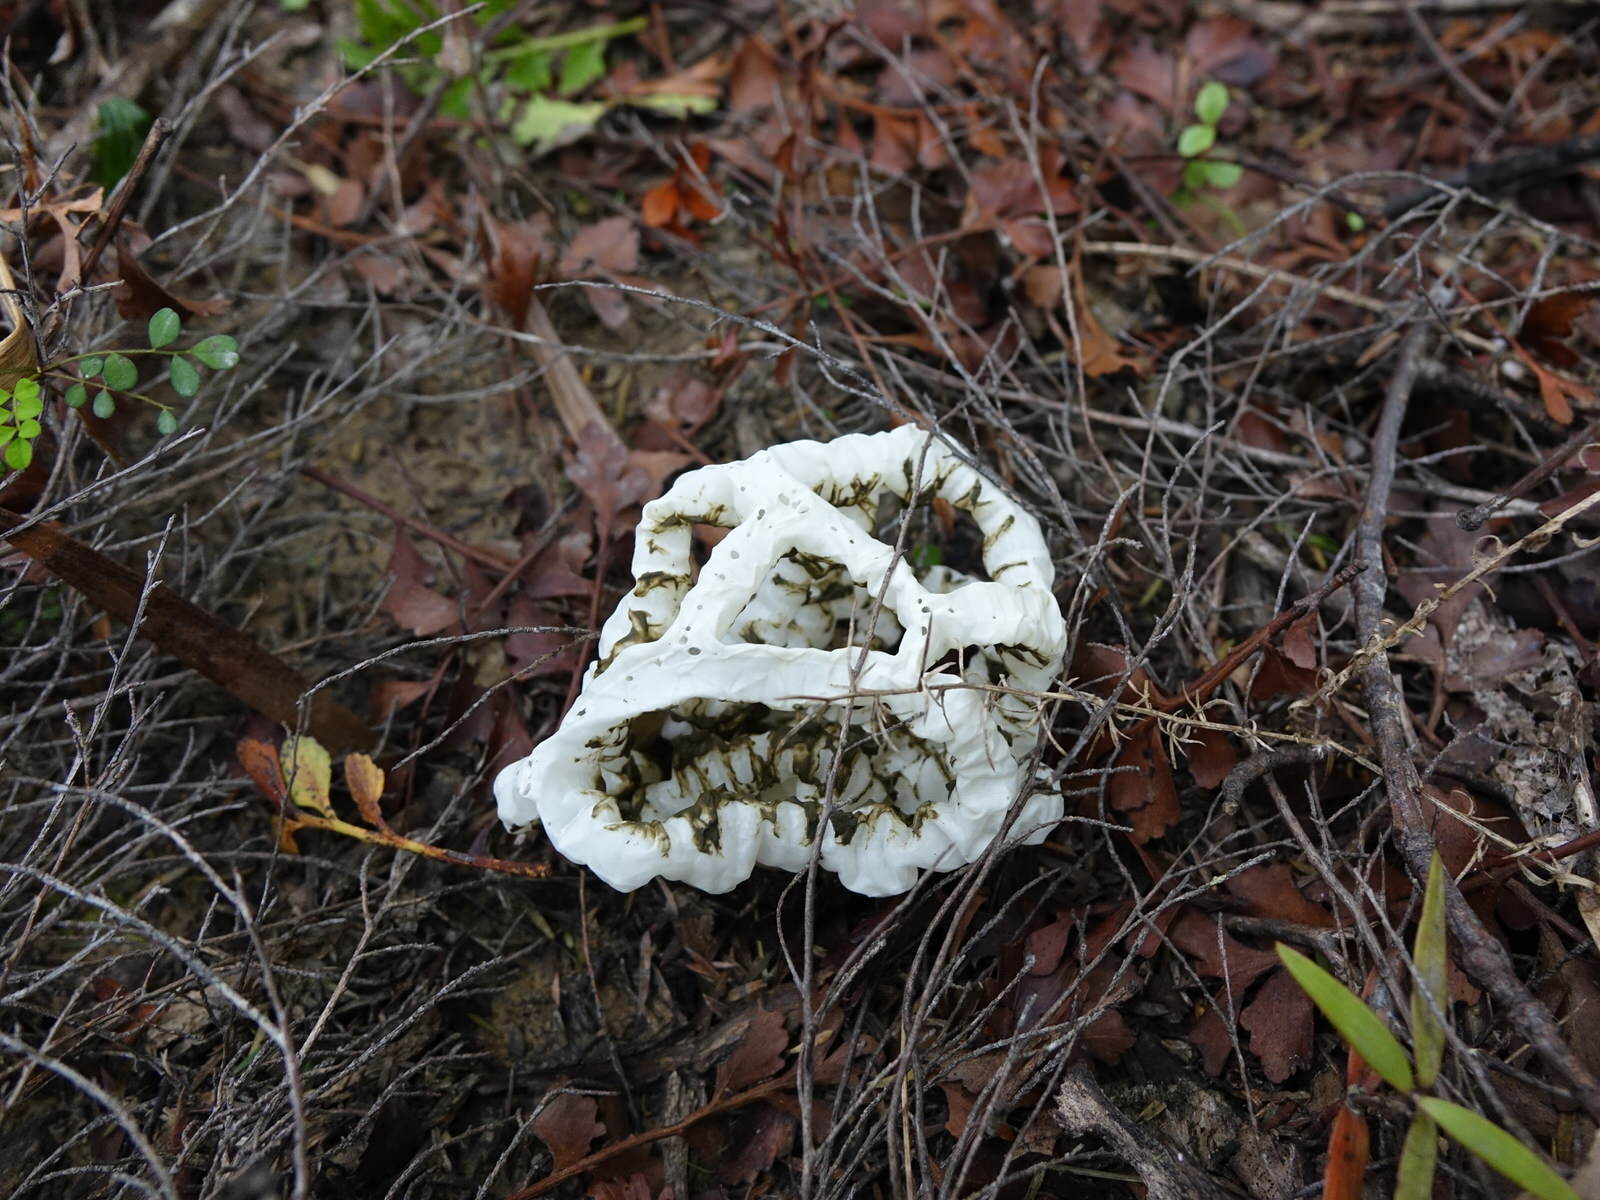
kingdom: Fungi
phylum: Basidiomycota
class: Agaricomycetes
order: Phallales
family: Phallaceae
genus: Ileodictyon
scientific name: Ileodictyon cibarium
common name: Basket fungus
